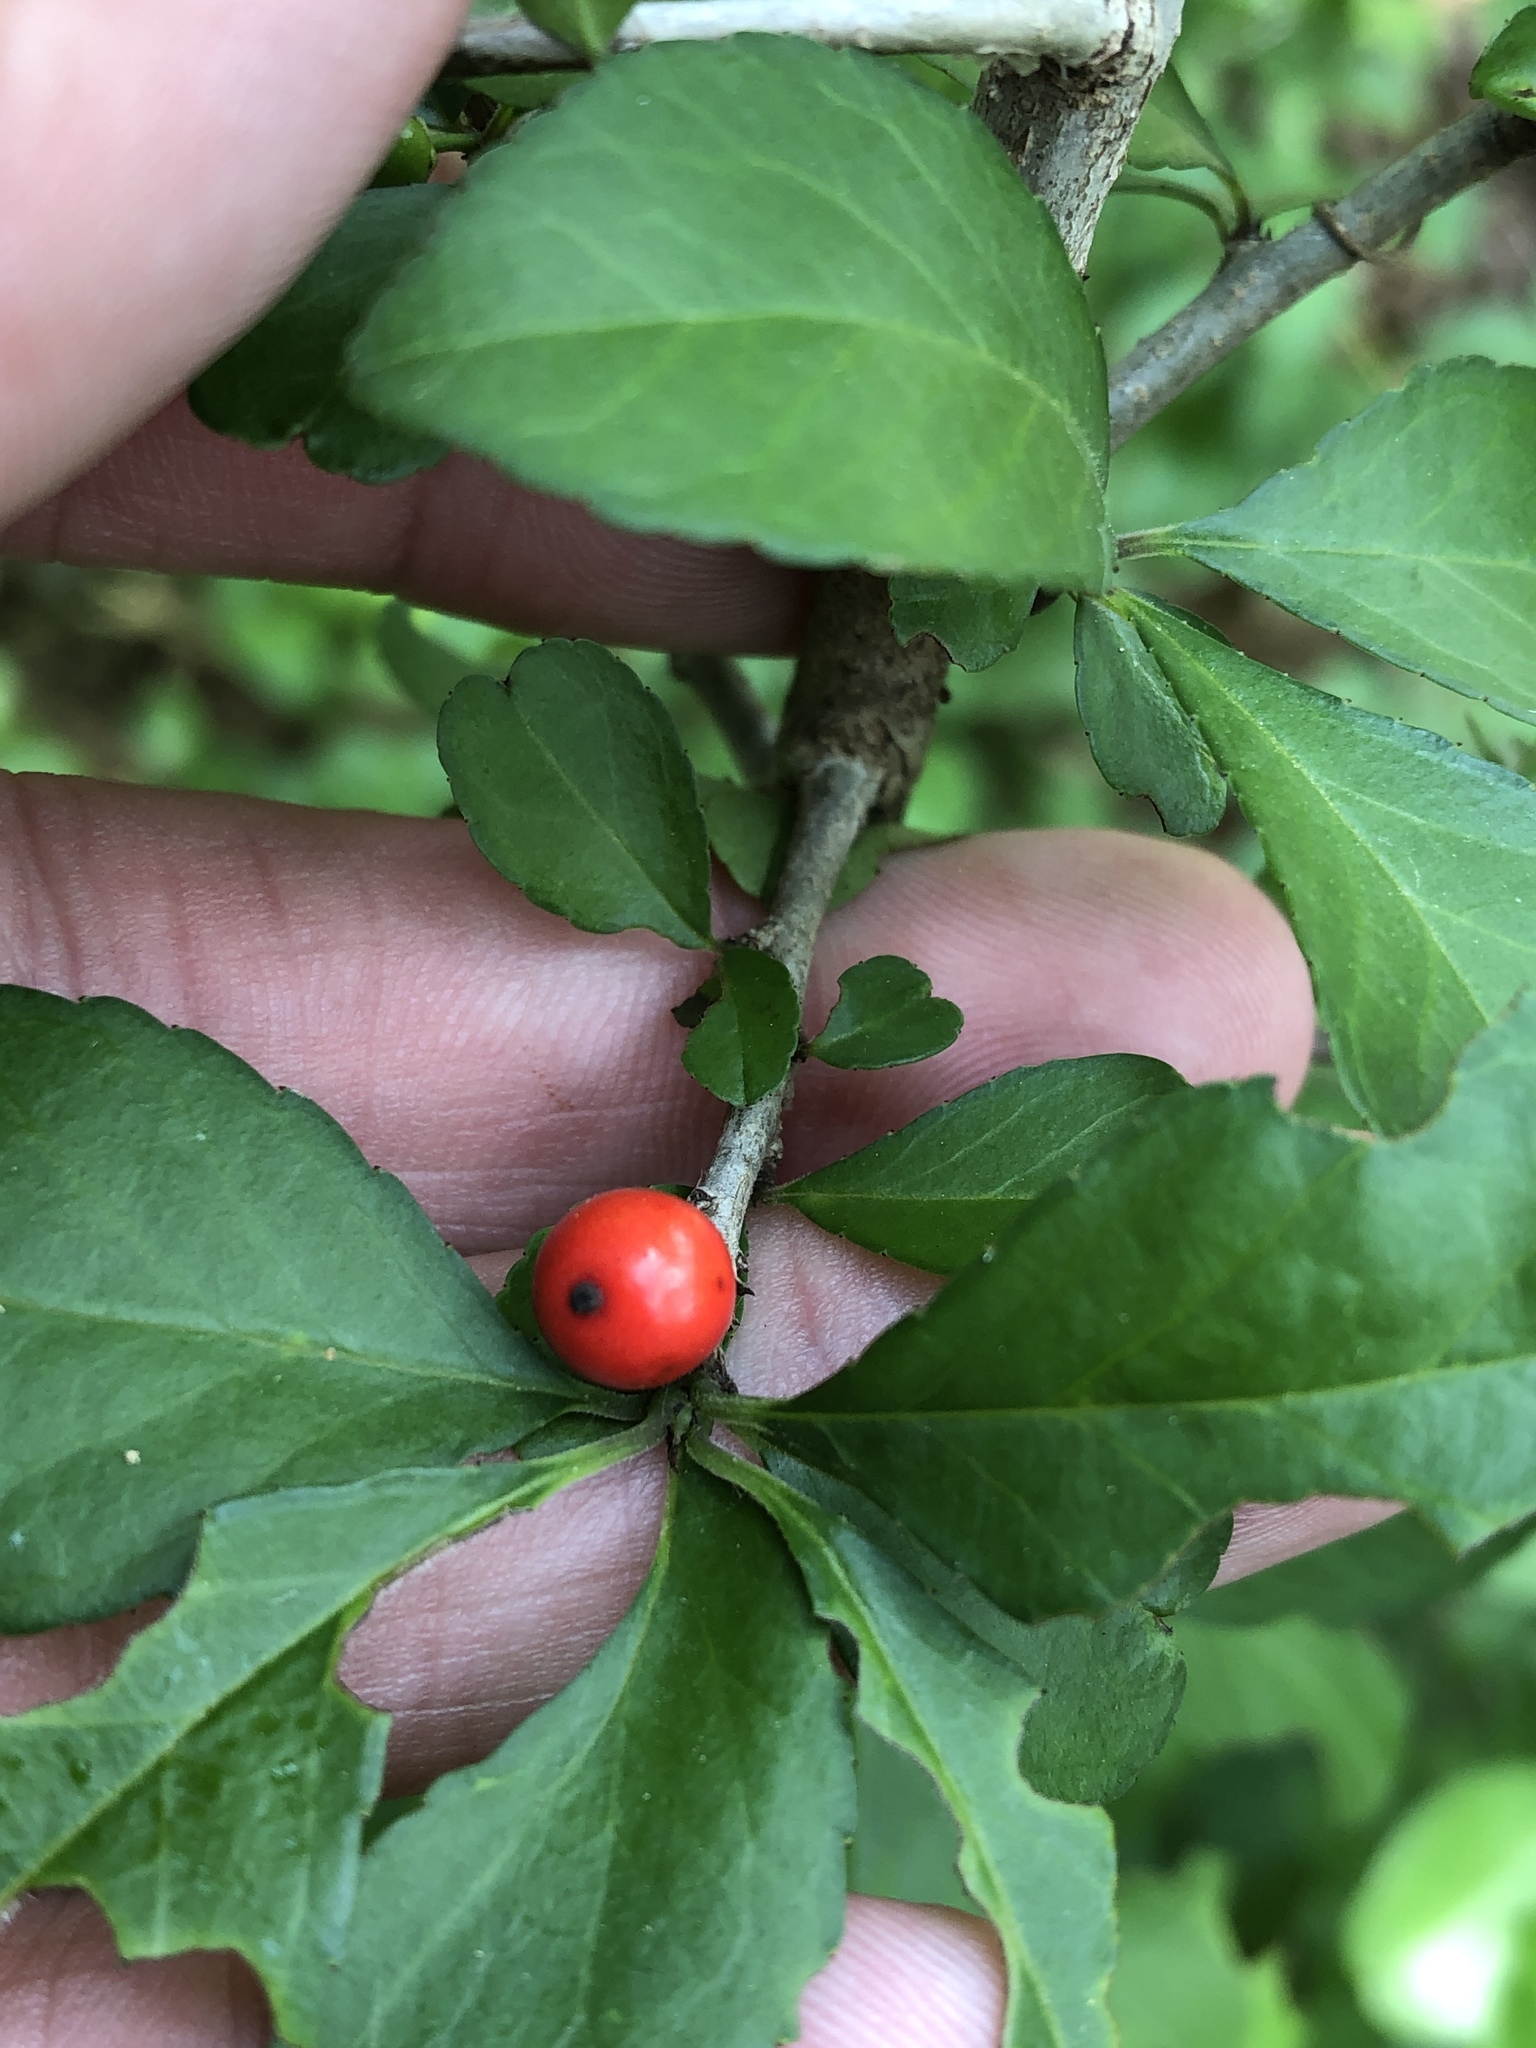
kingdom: Plantae
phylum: Tracheophyta
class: Magnoliopsida
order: Aquifoliales
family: Aquifoliaceae
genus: Ilex
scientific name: Ilex decidua
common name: Possum-haw
